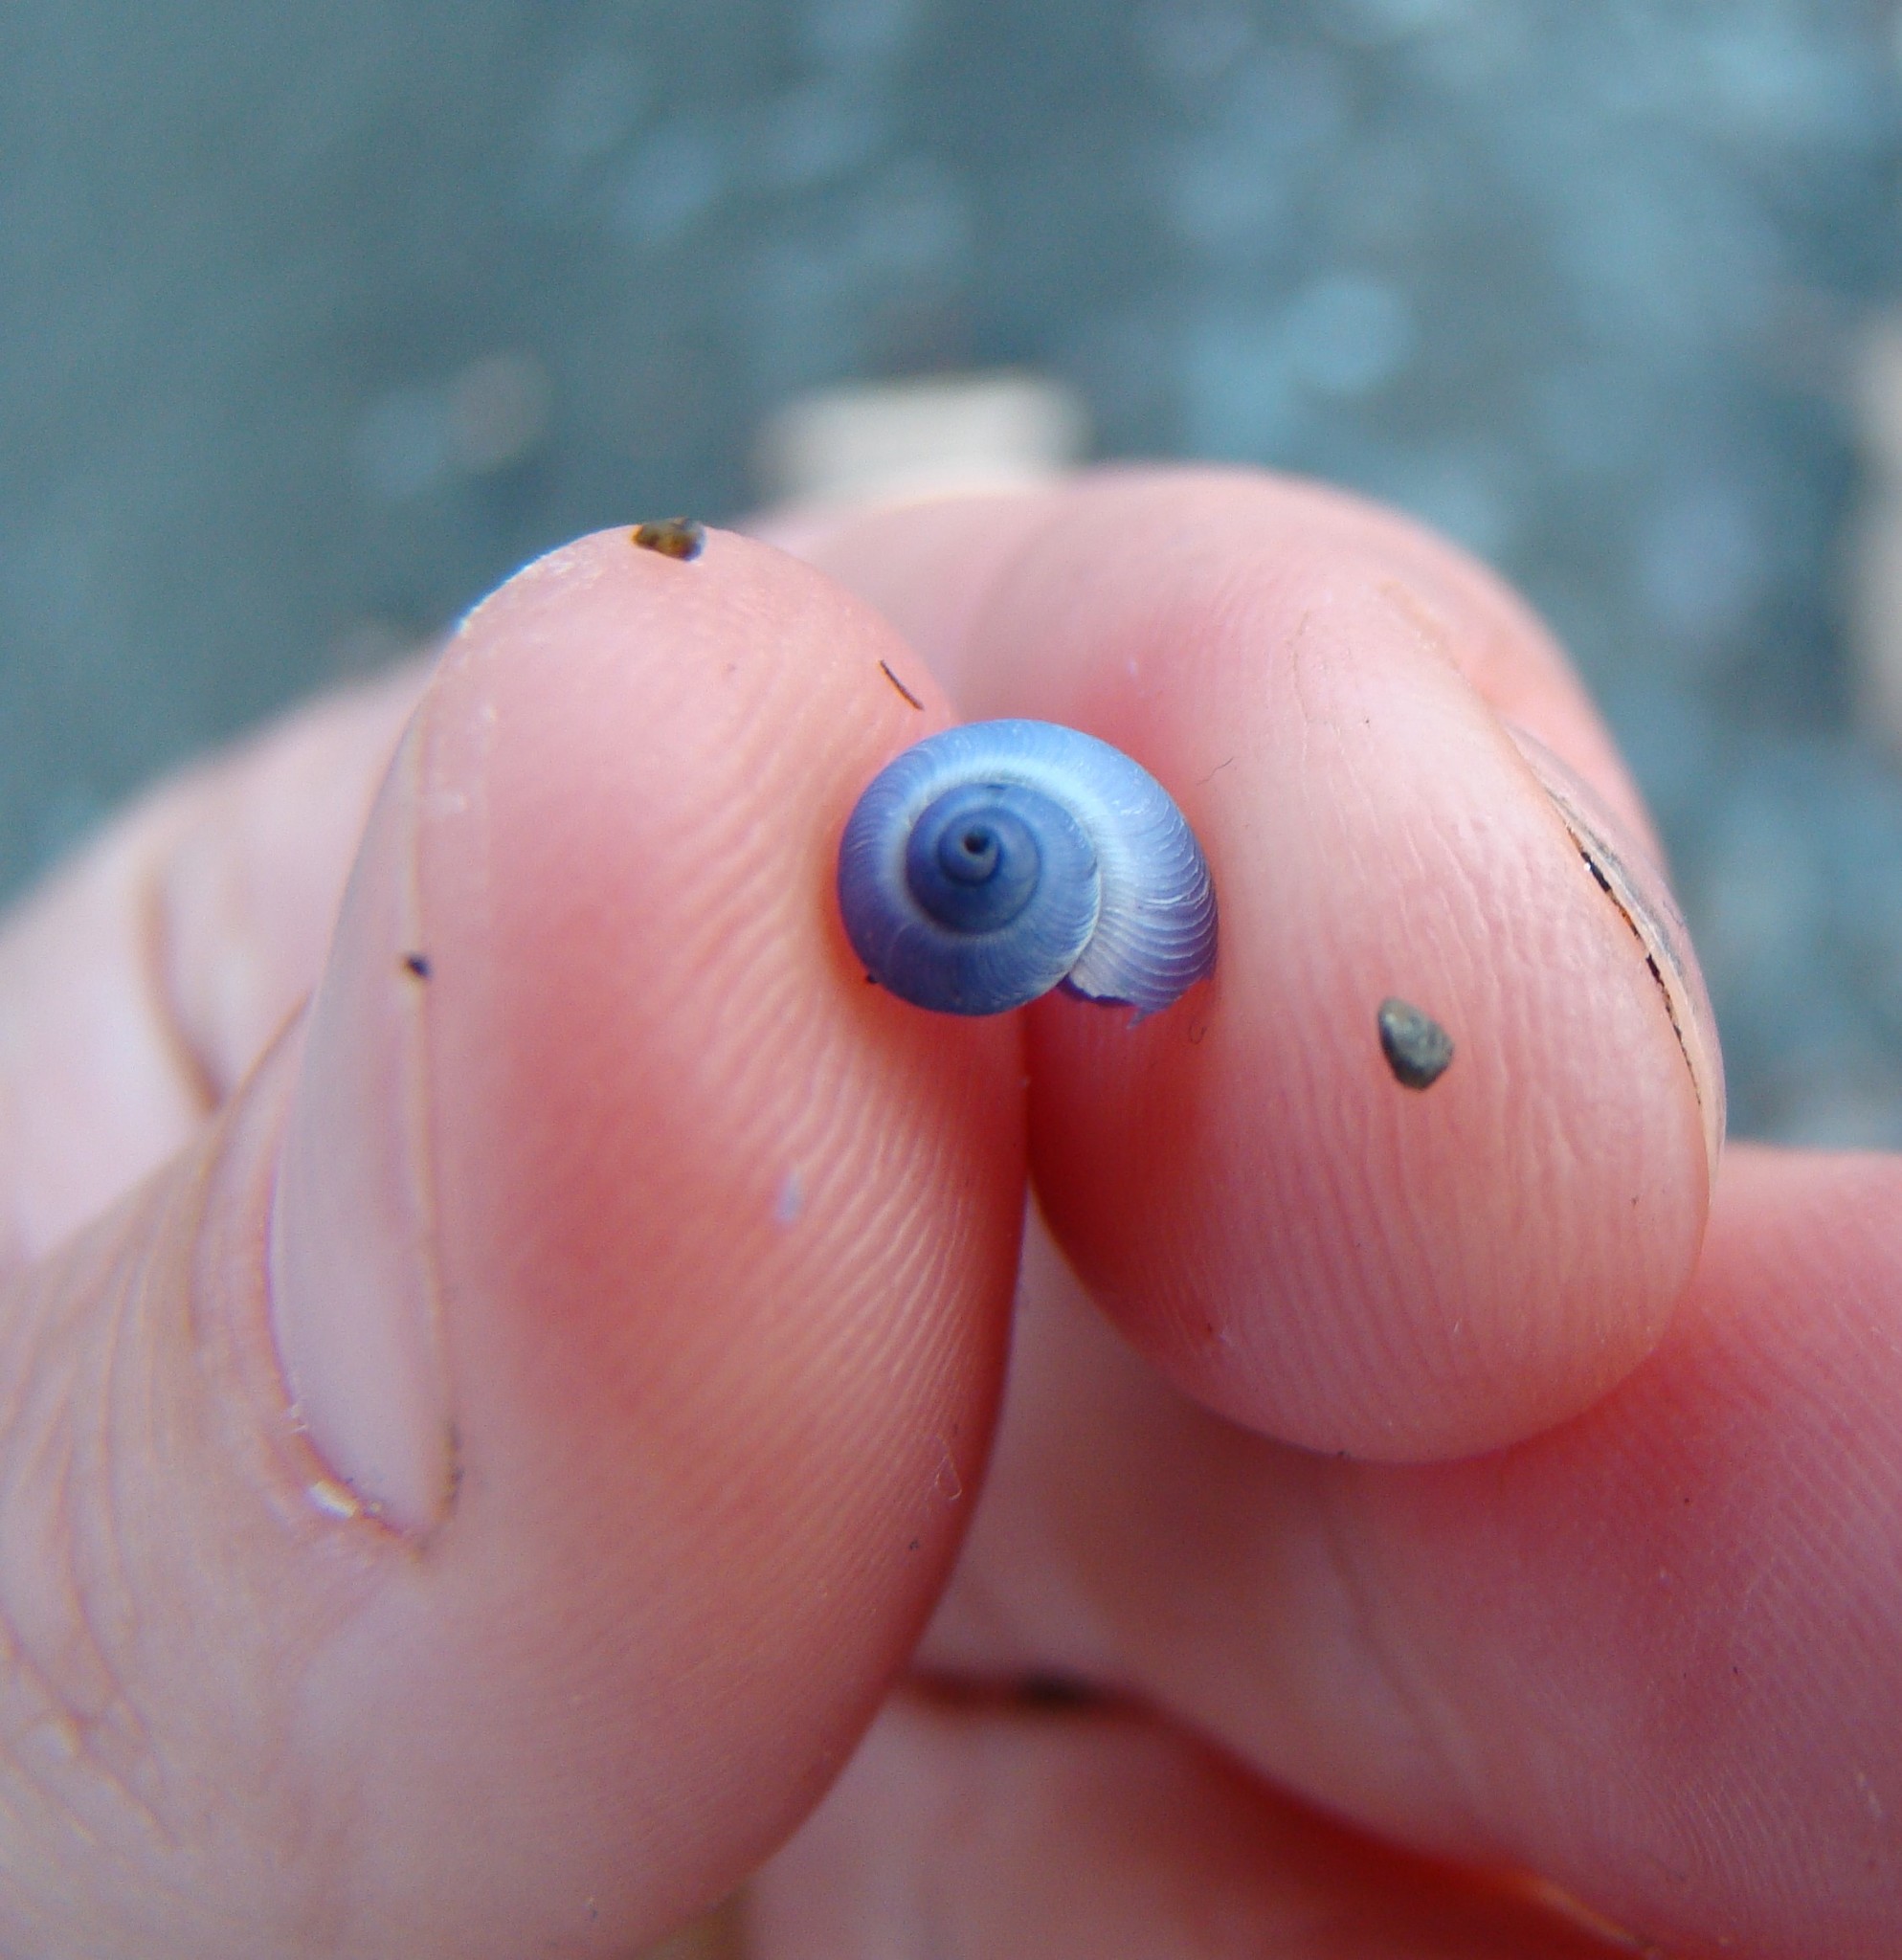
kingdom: Animalia
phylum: Mollusca
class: Gastropoda
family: Epitoniidae
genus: Janthina
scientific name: Janthina exigua
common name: Dwarf janthina
